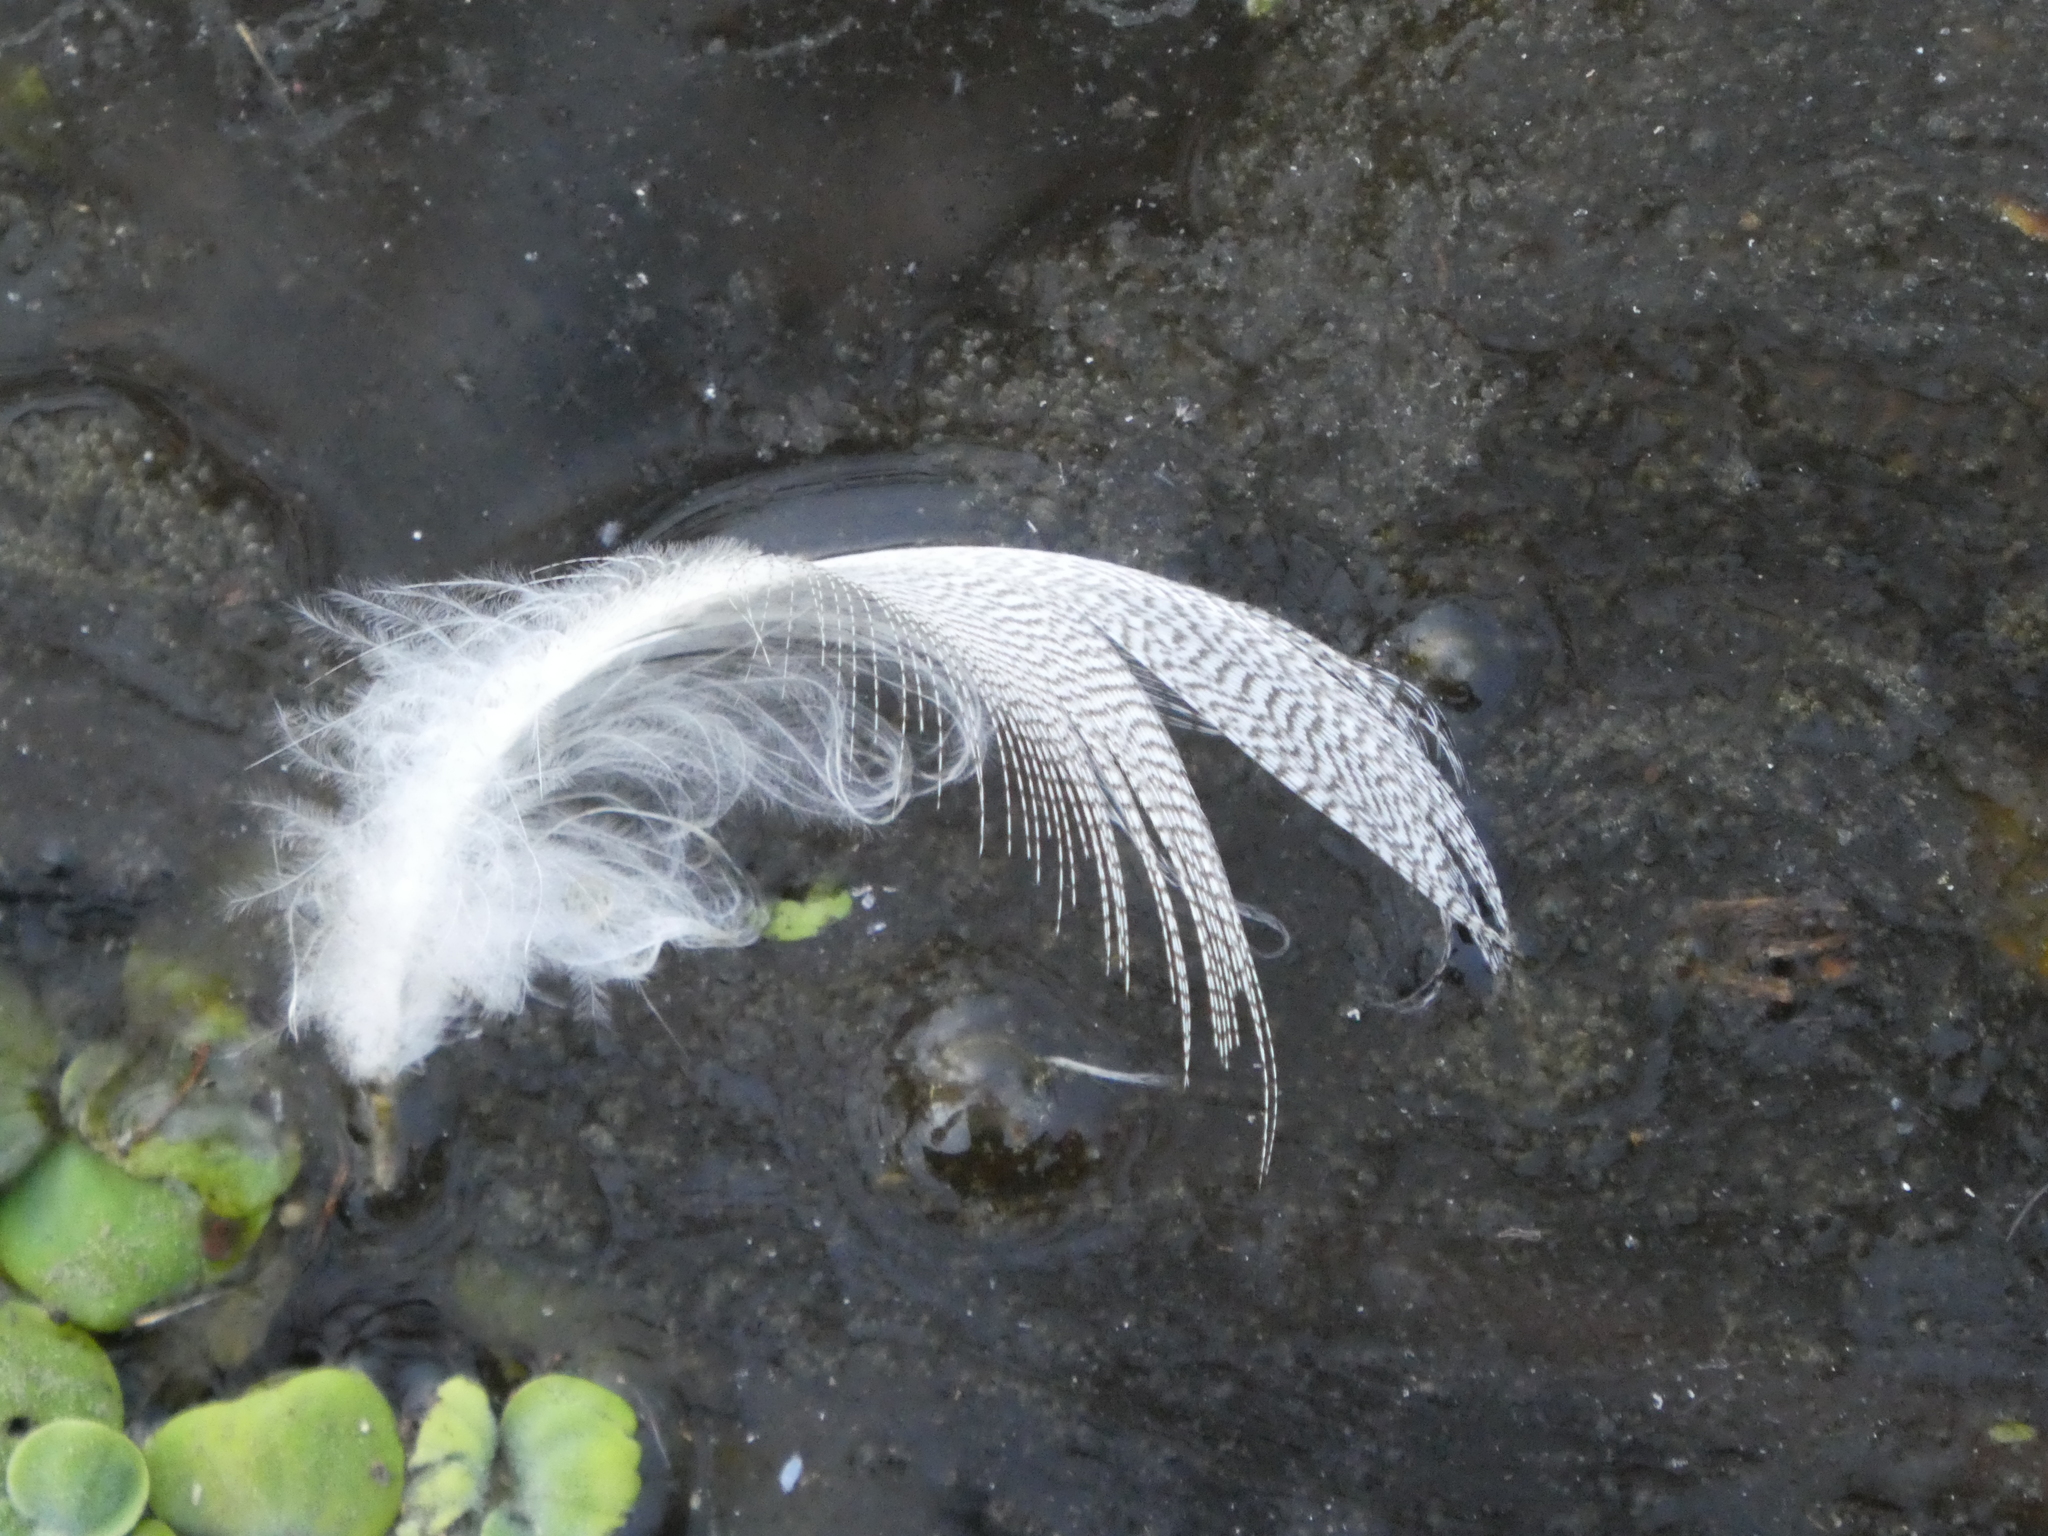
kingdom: Animalia
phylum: Chordata
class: Aves
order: Anseriformes
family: Anatidae
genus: Anas
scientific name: Anas platyrhynchos
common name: Mallard
